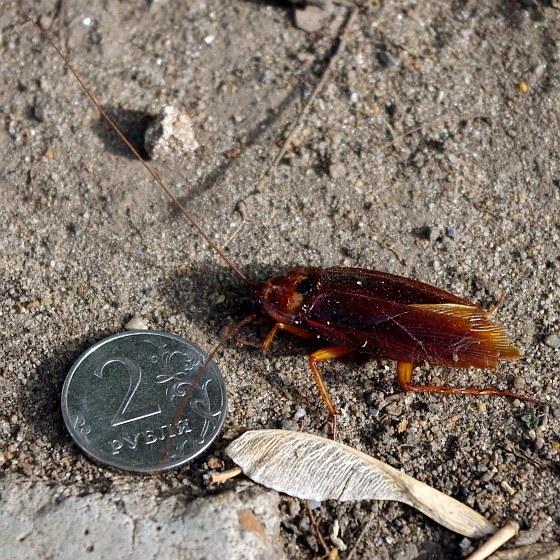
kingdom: Animalia
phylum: Arthropoda
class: Insecta
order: Blattodea
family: Blattidae
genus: Periplaneta
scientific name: Periplaneta americana
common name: American cockroach
